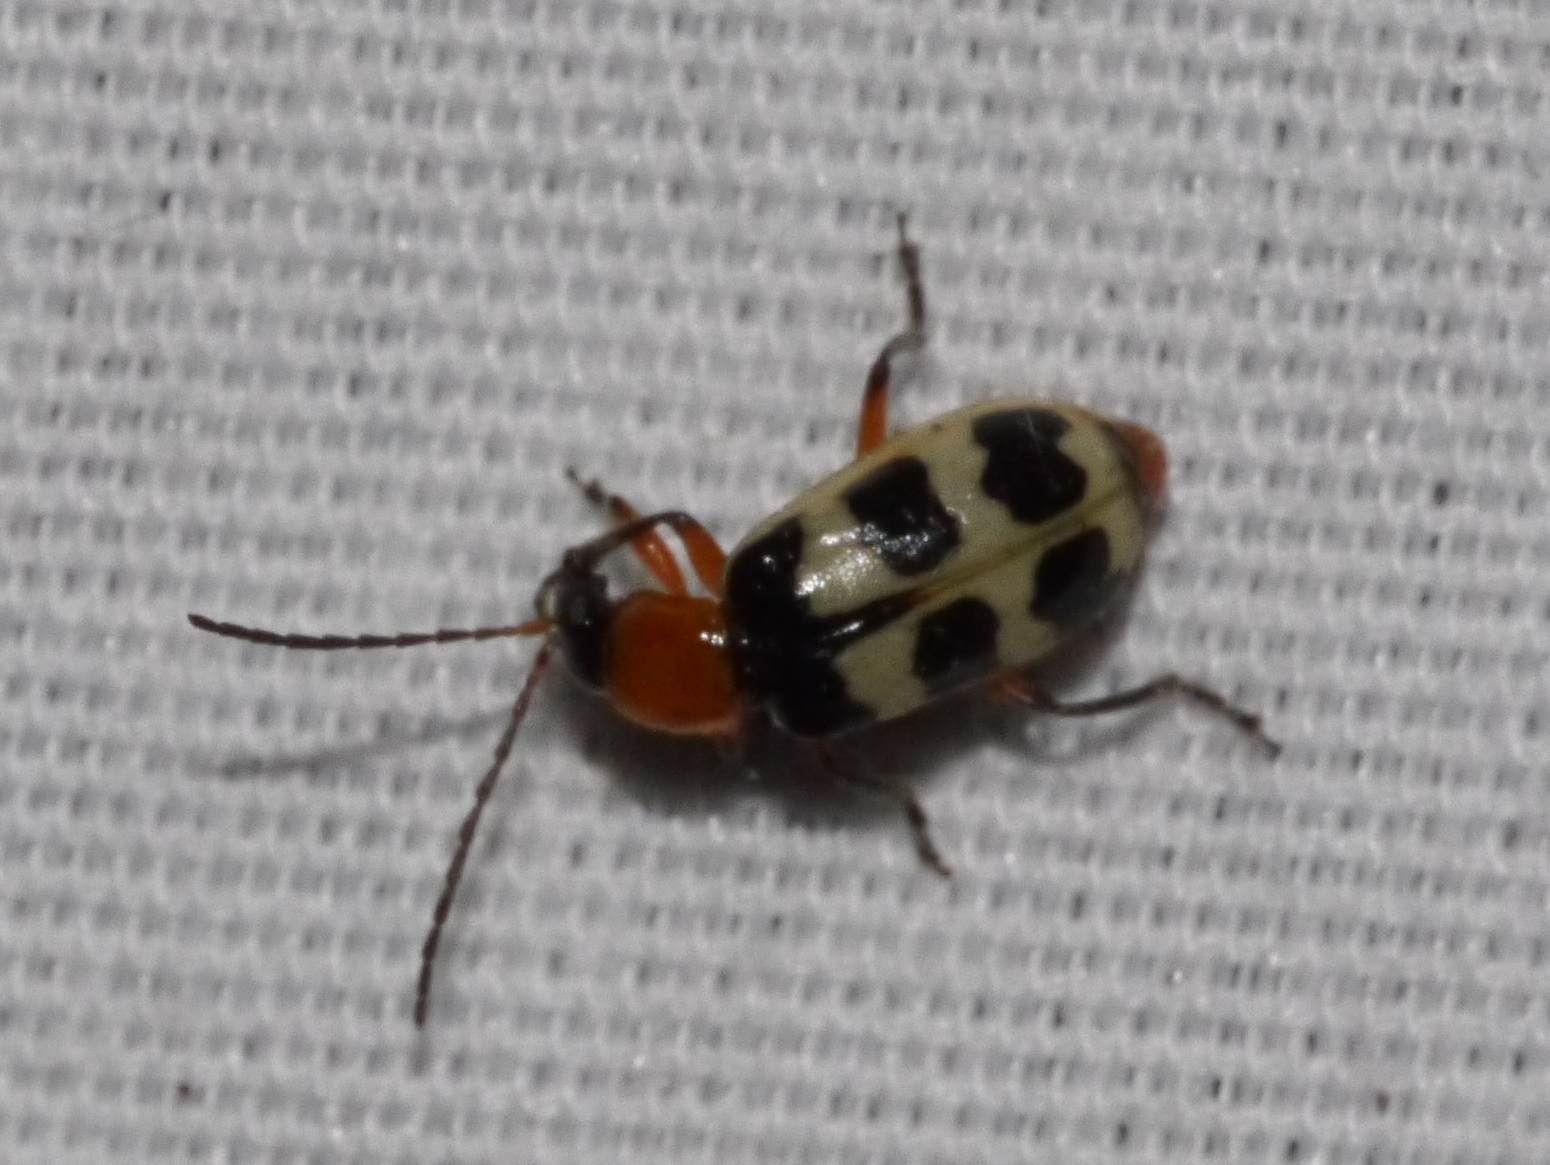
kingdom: Animalia
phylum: Arthropoda
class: Insecta
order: Coleoptera
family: Chrysomelidae
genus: Paranapiacaba
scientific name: Paranapiacaba tricincta
